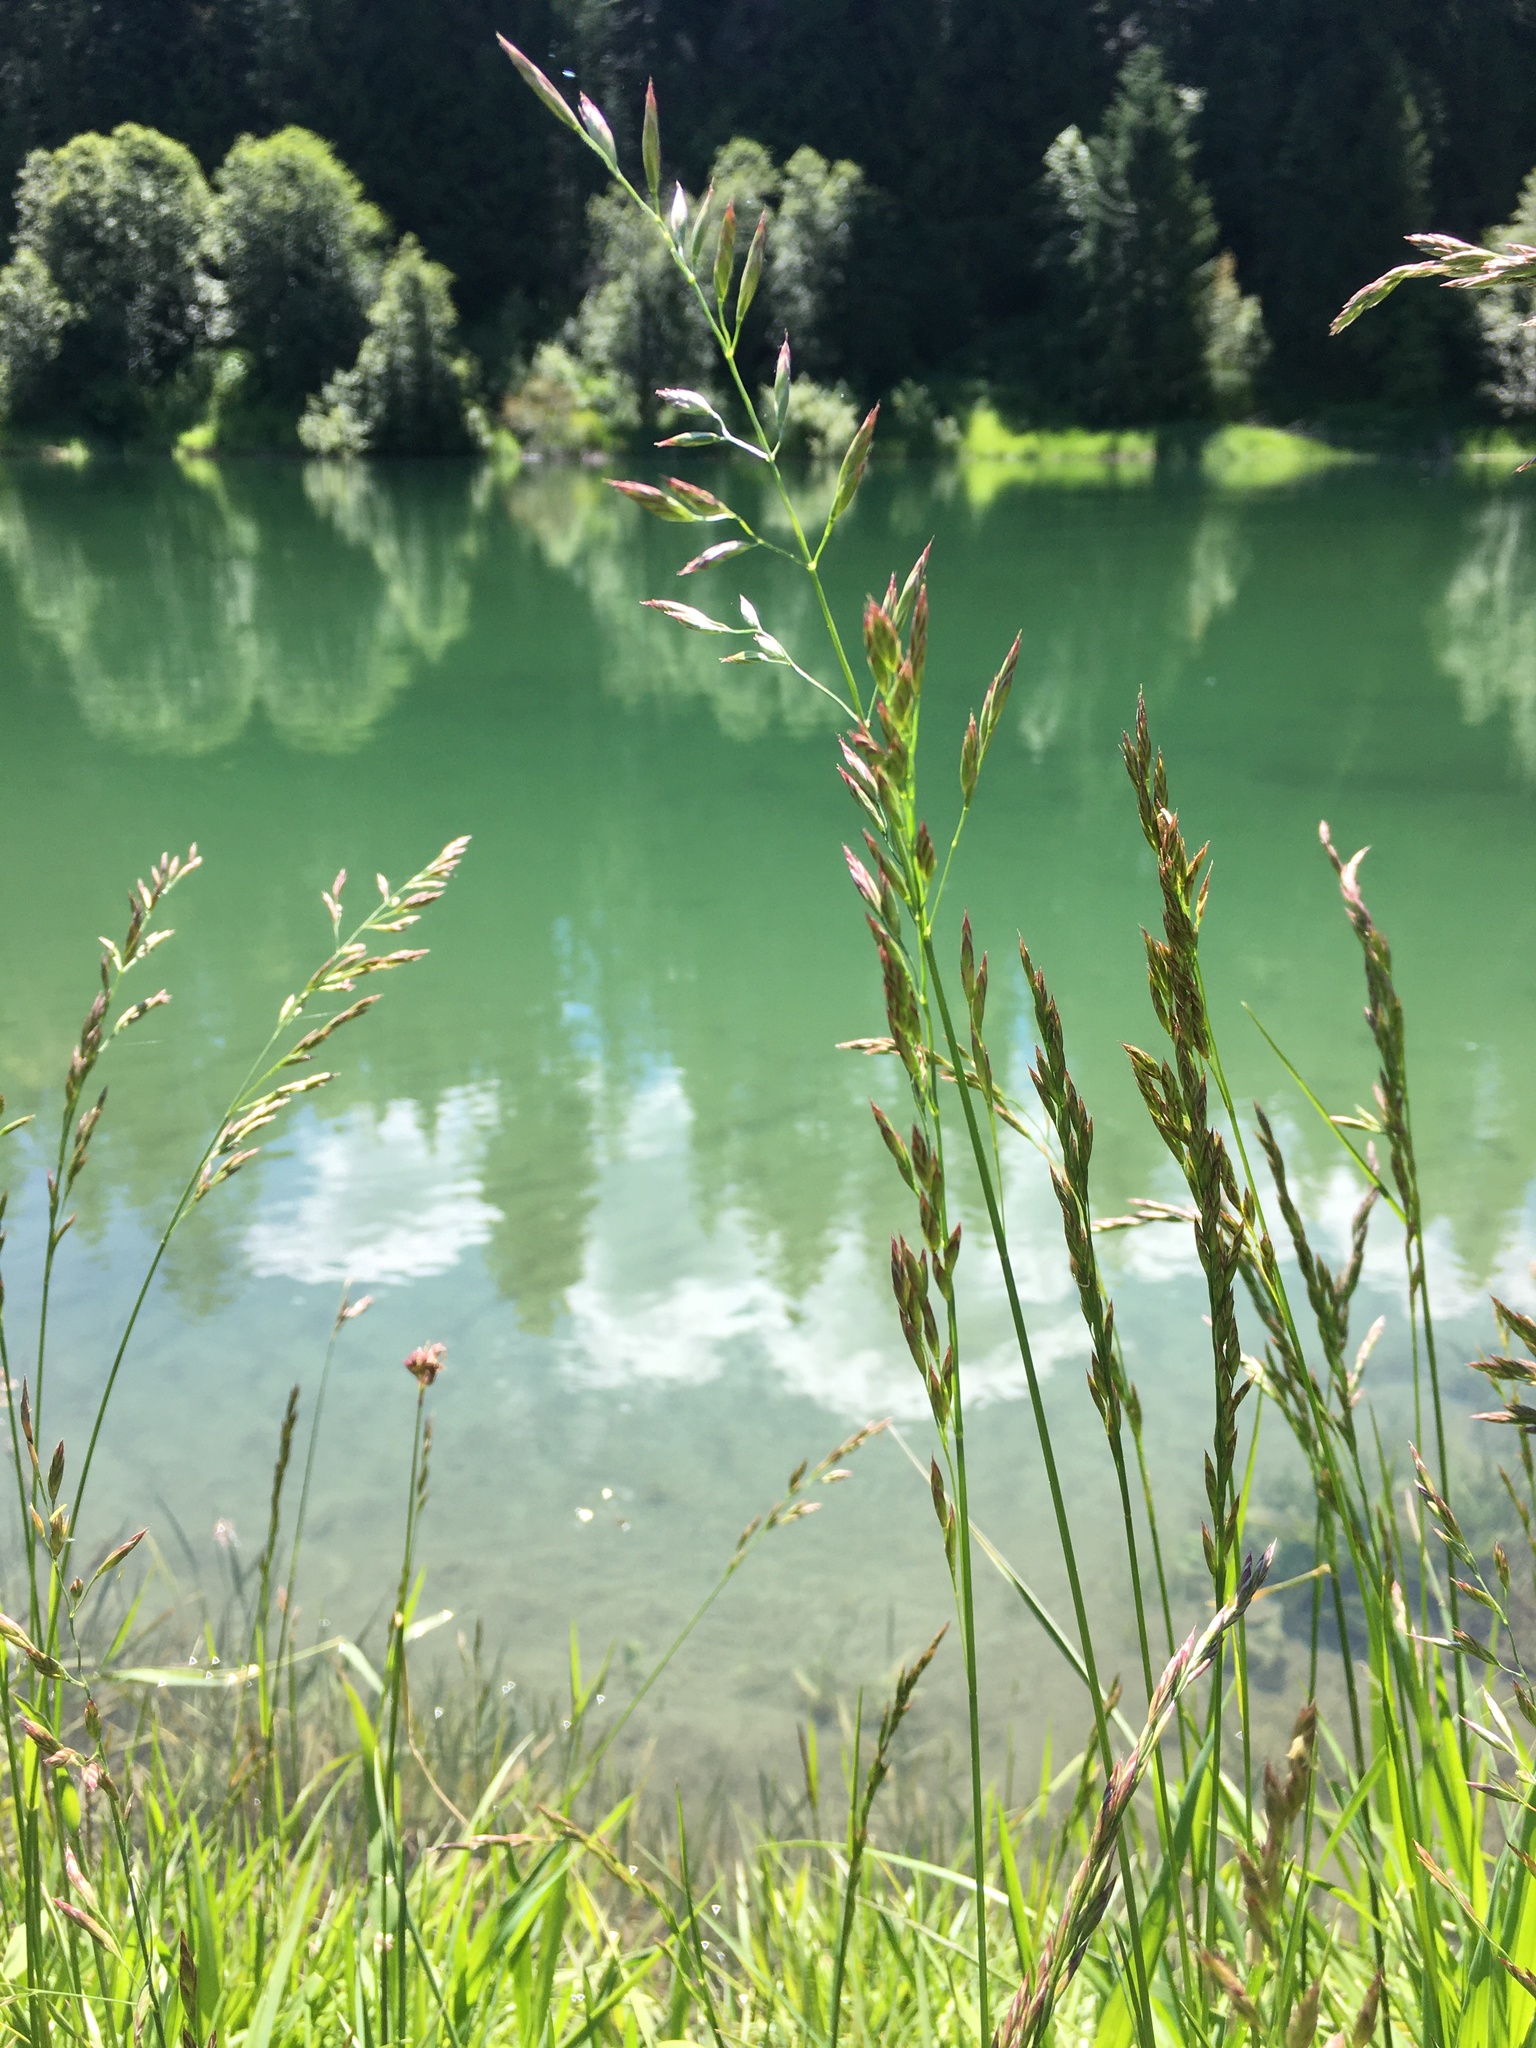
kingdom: Plantae
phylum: Tracheophyta
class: Liliopsida
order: Poales
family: Poaceae
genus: Lolium
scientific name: Lolium arundinaceum
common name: Reed fescue
